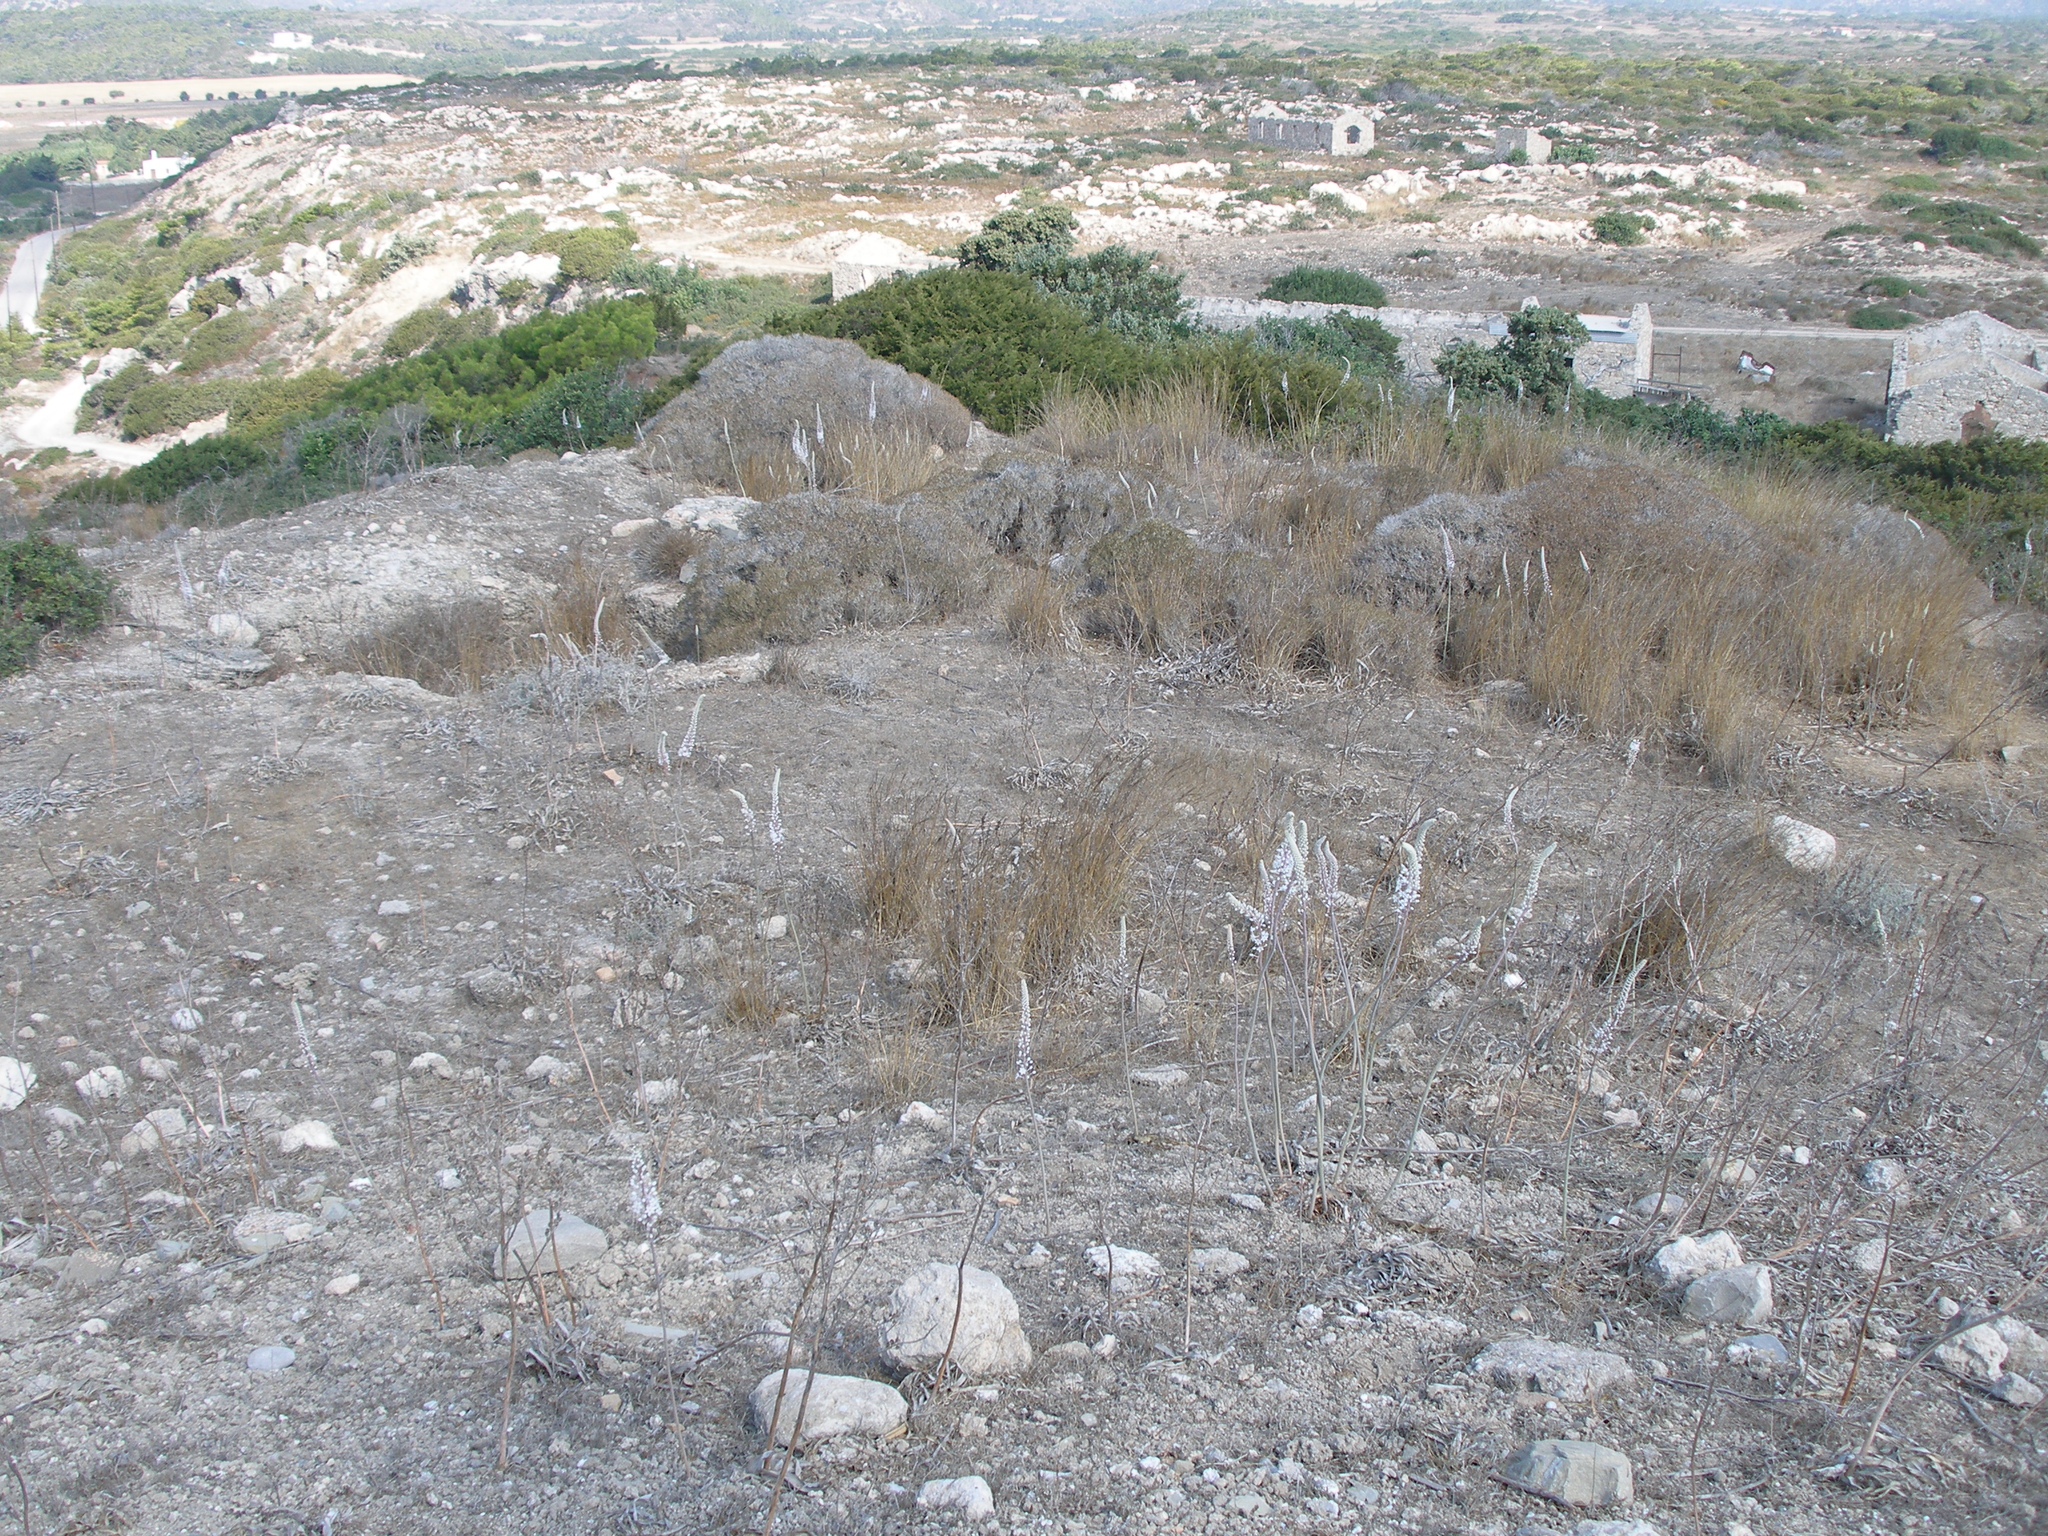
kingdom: Plantae
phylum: Tracheophyta
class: Liliopsida
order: Asparagales
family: Asparagaceae
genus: Drimia
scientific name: Drimia aphylla
